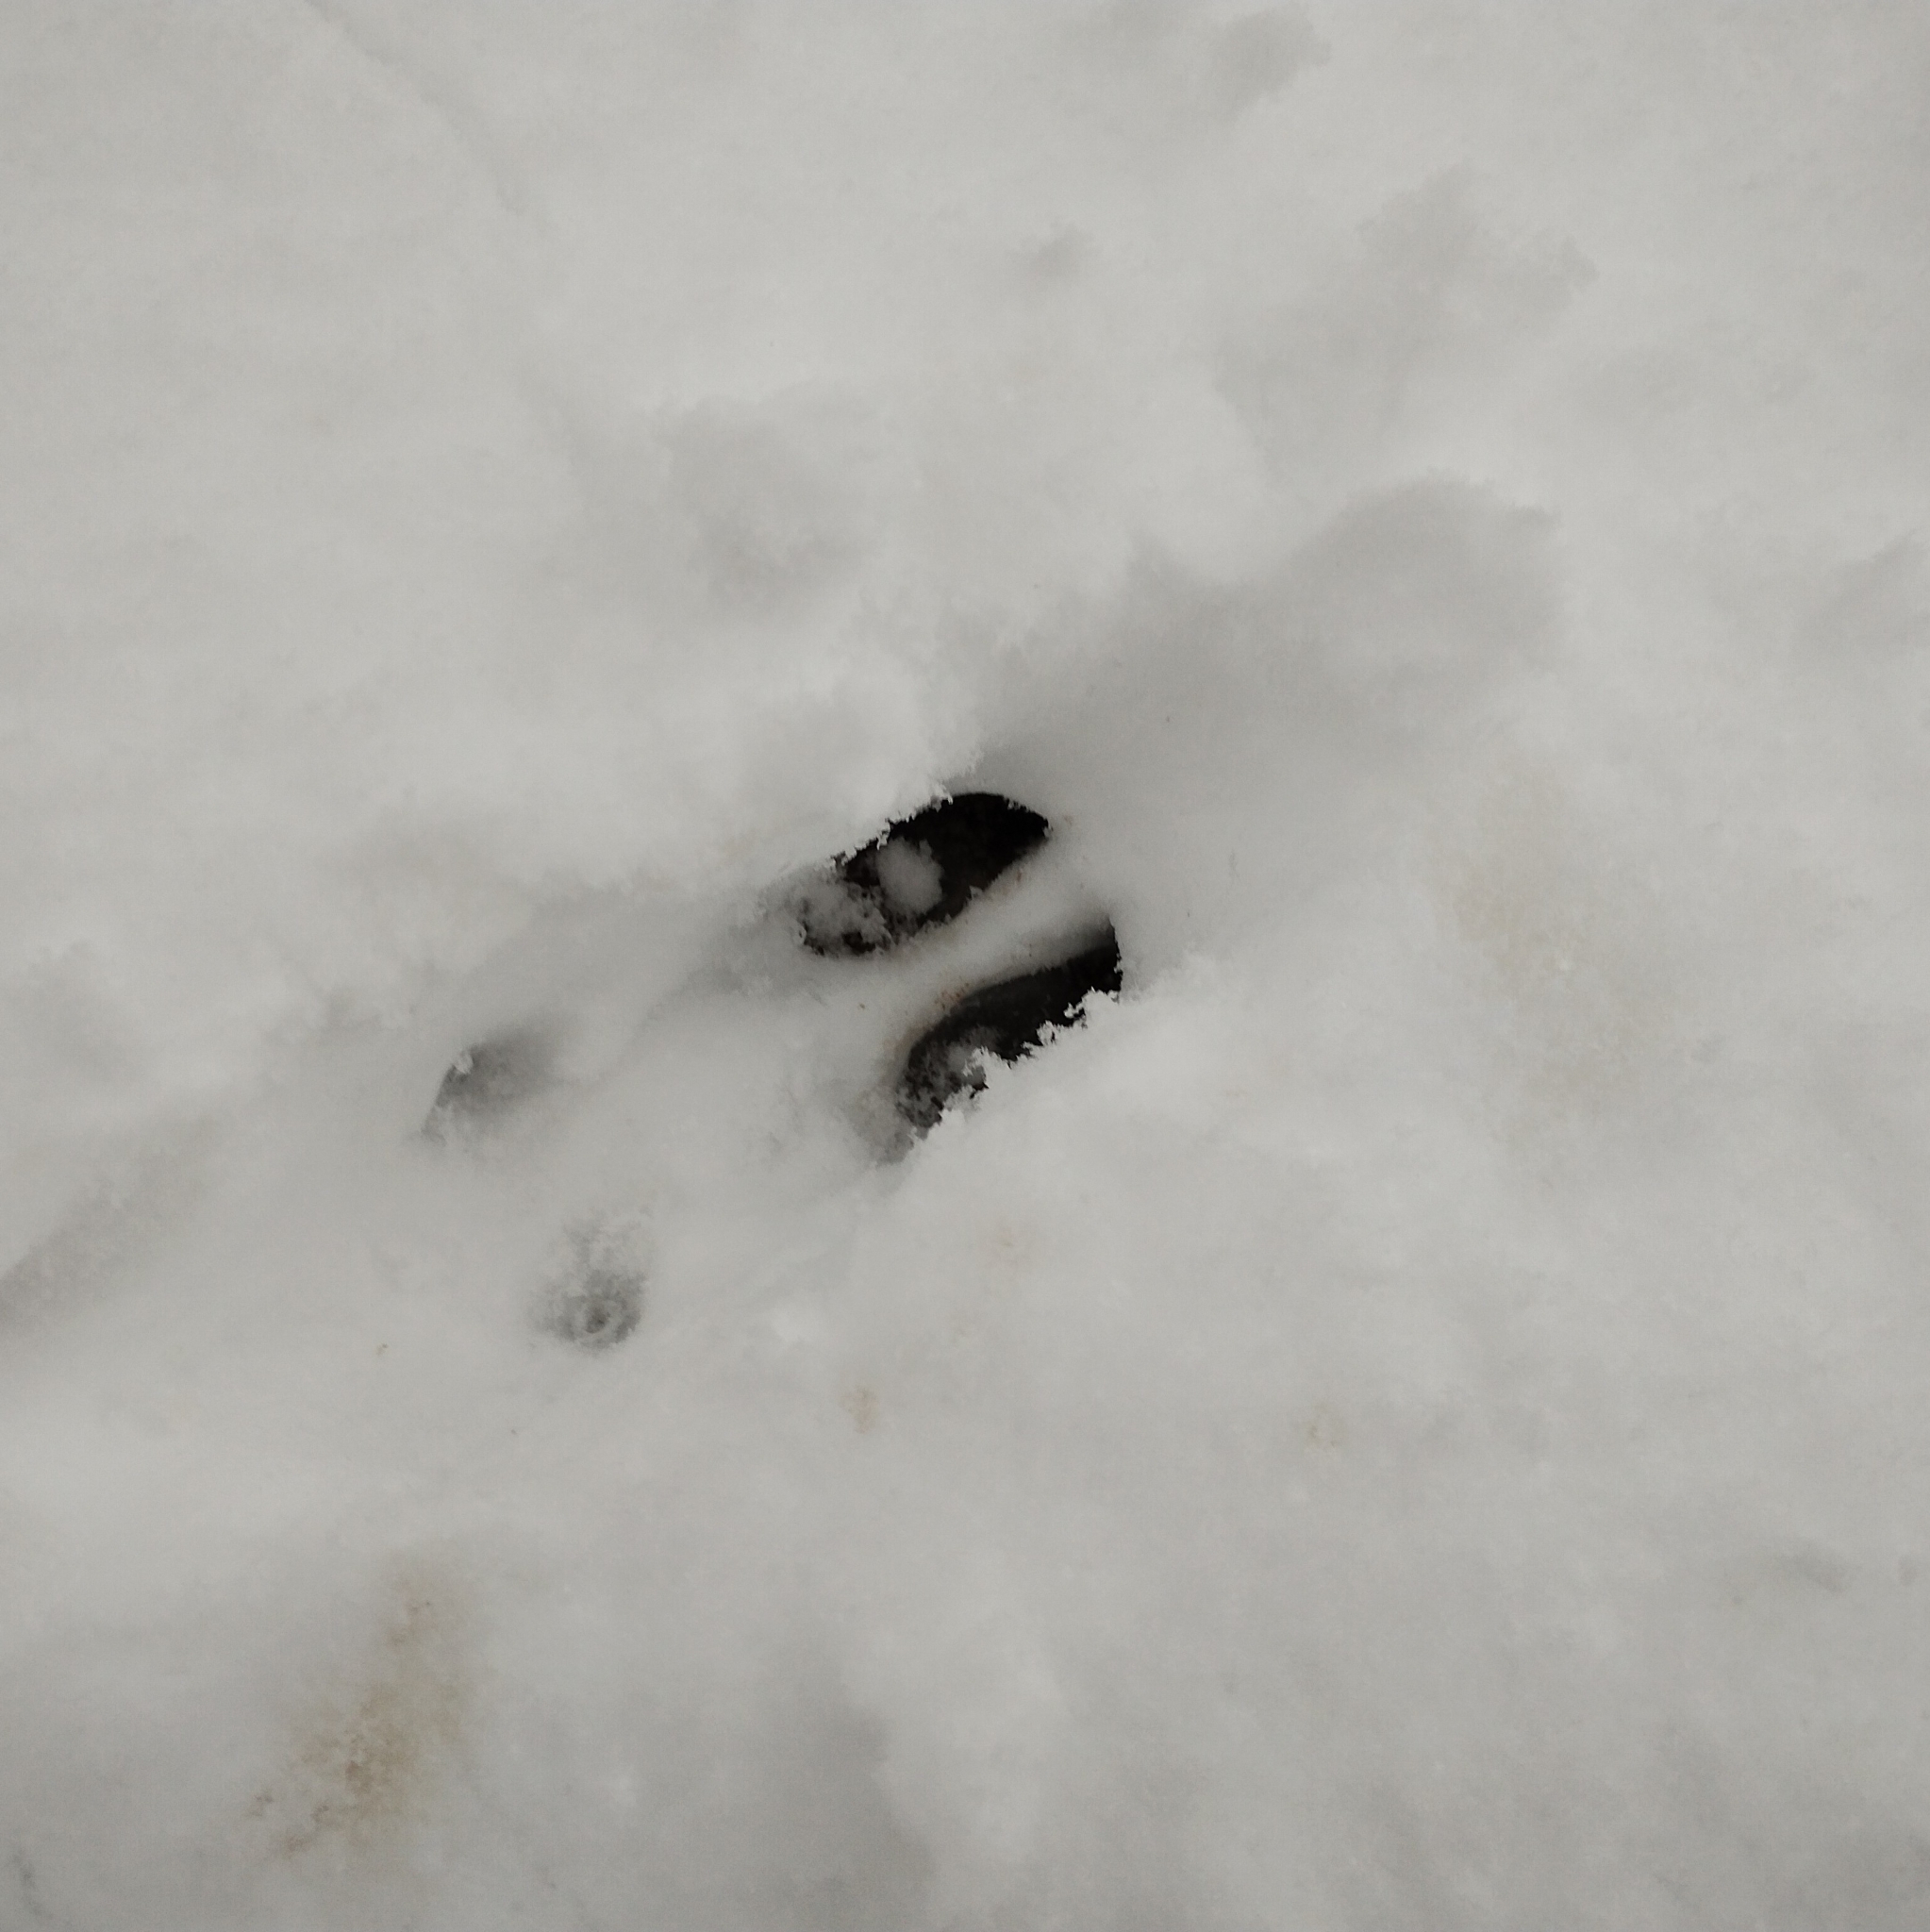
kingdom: Animalia
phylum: Chordata
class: Mammalia
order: Artiodactyla
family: Cervidae
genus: Capreolus
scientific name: Capreolus capreolus
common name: Western roe deer
